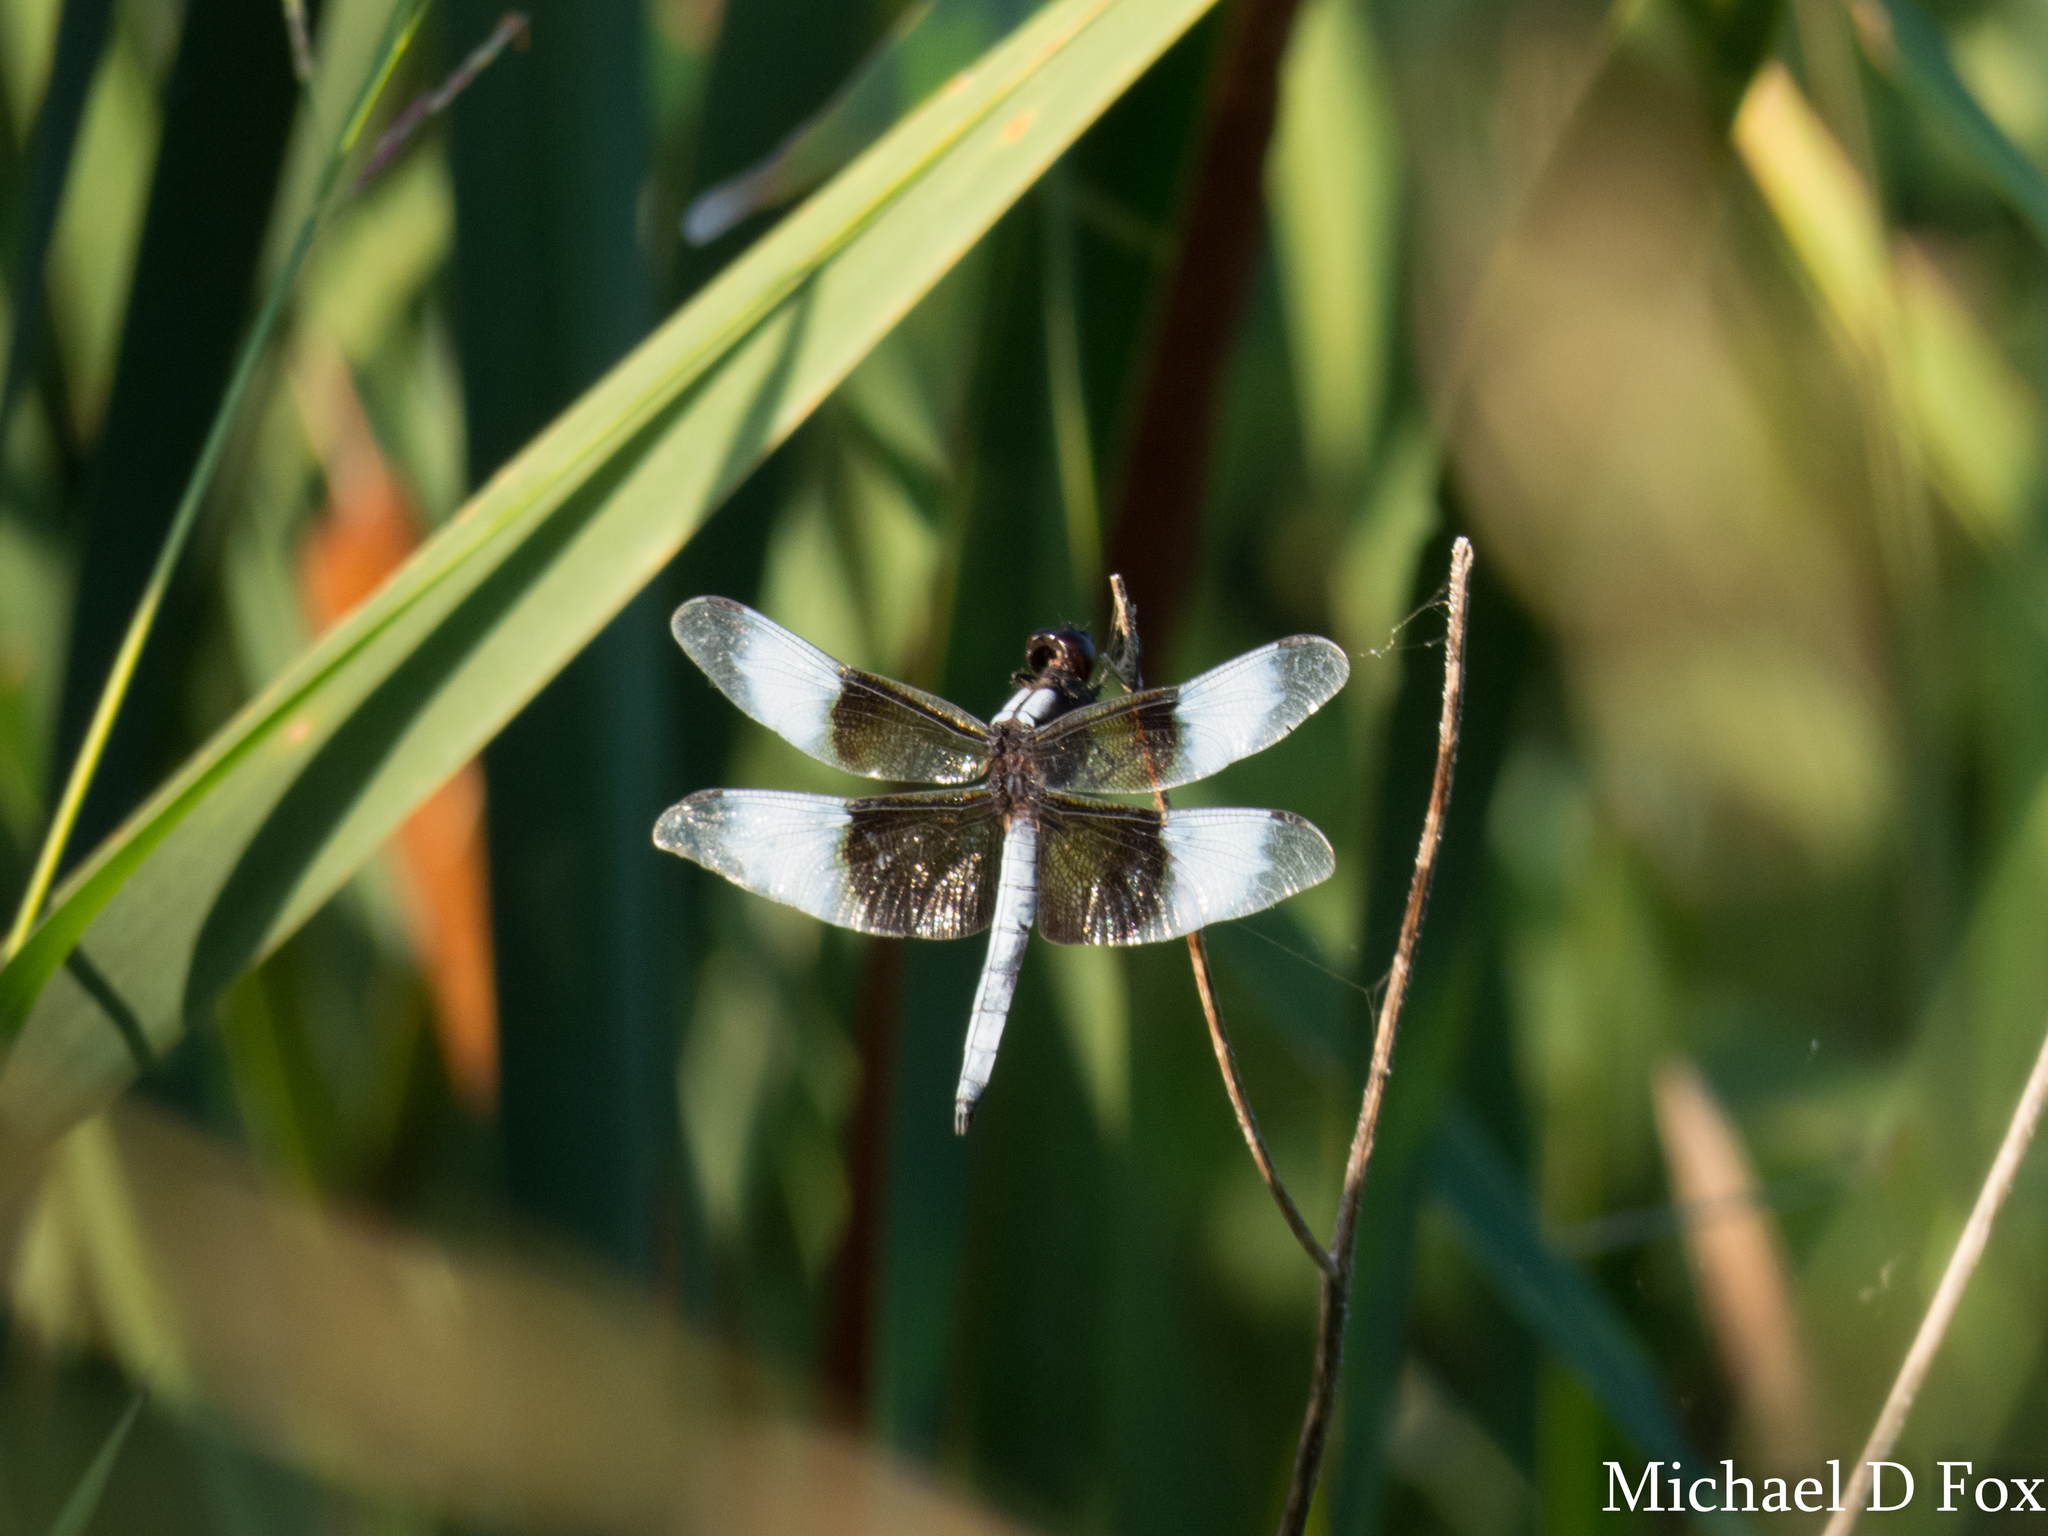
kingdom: Animalia
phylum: Arthropoda
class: Insecta
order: Odonata
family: Libellulidae
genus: Libellula
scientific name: Libellula luctuosa
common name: Widow skimmer
